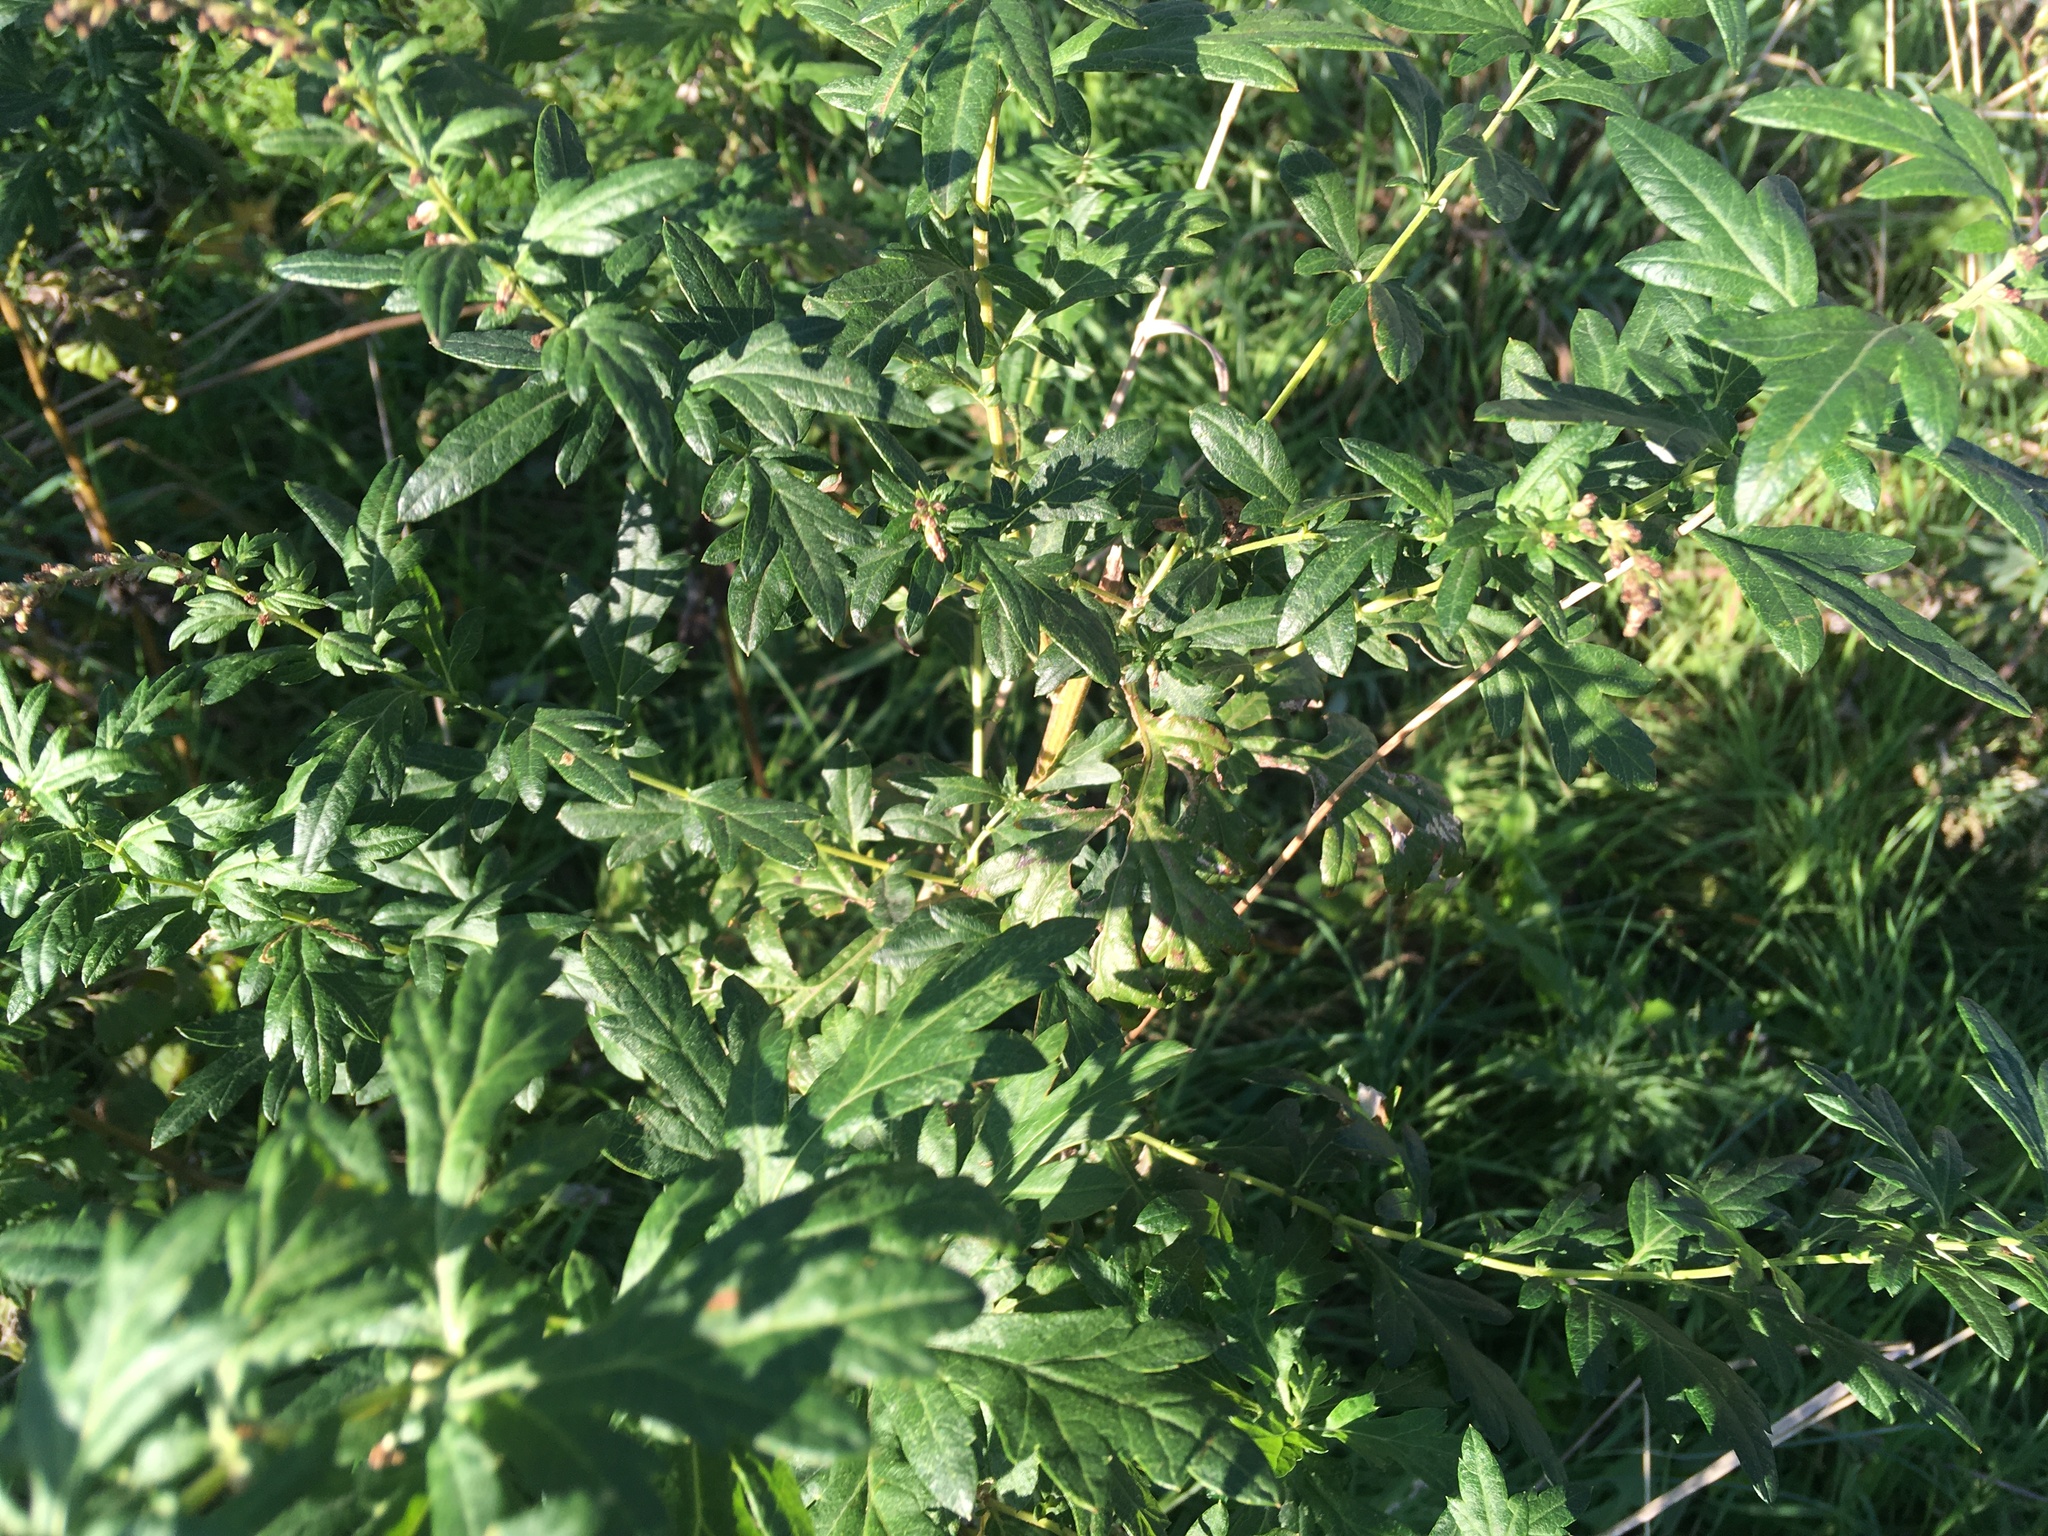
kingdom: Plantae
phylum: Tracheophyta
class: Magnoliopsida
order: Asterales
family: Asteraceae
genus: Artemisia
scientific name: Artemisia vulgaris
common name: Mugwort
